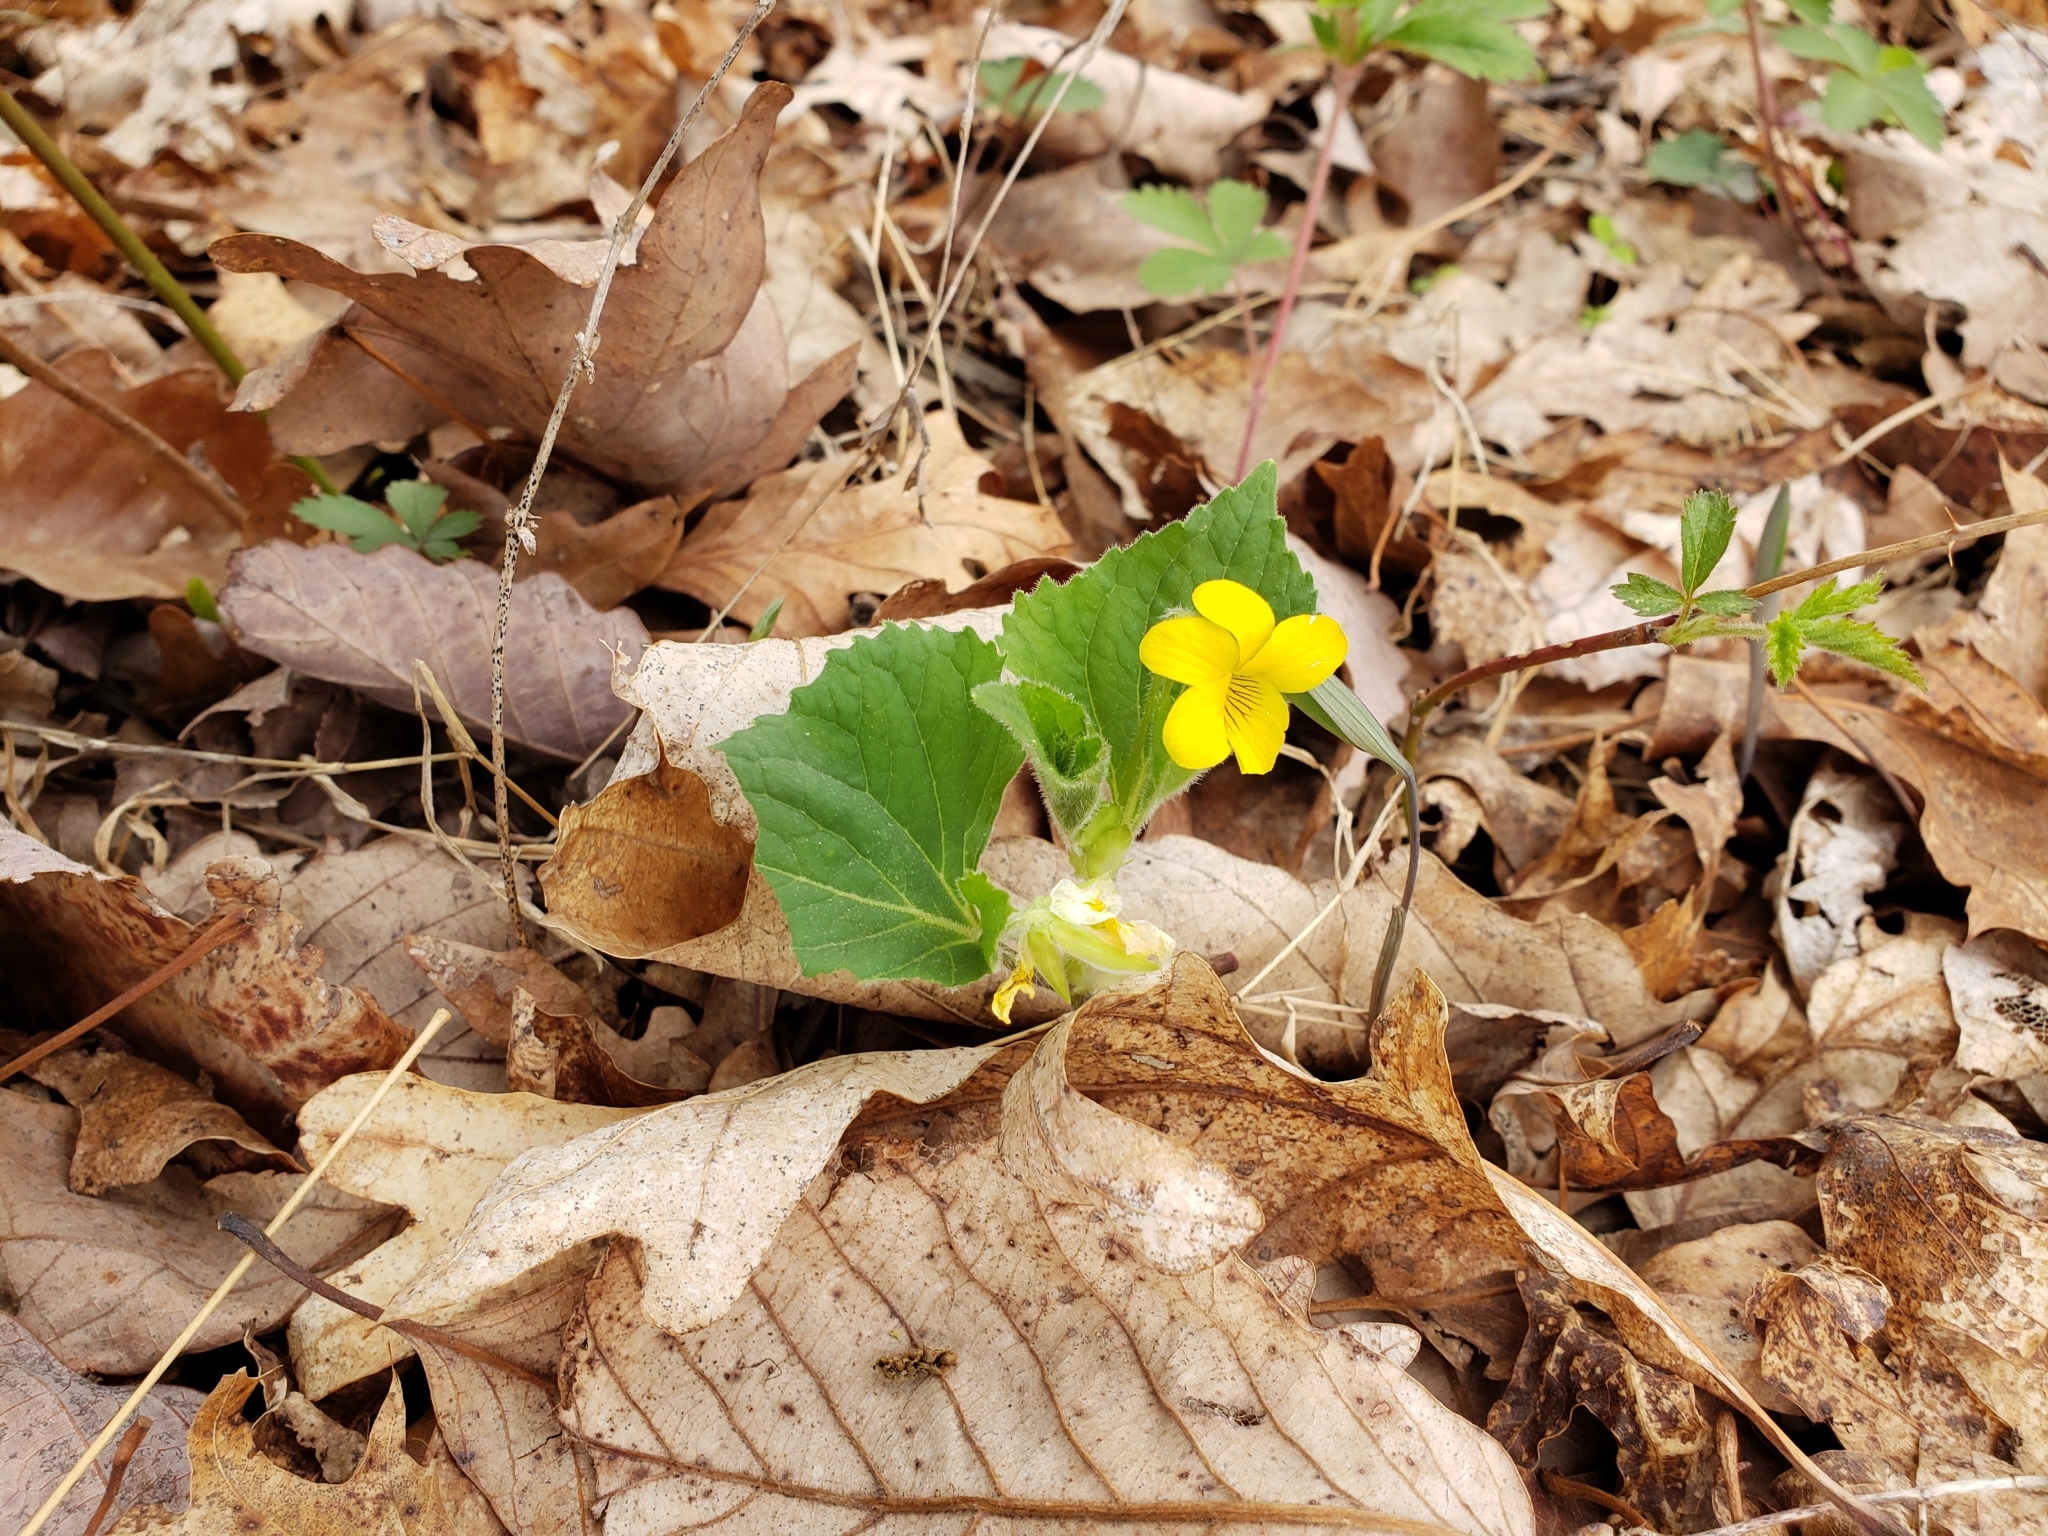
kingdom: Plantae
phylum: Tracheophyta
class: Magnoliopsida
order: Malpighiales
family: Violaceae
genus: Viola
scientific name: Viola eriocarpa
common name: Smooth yellow violet
